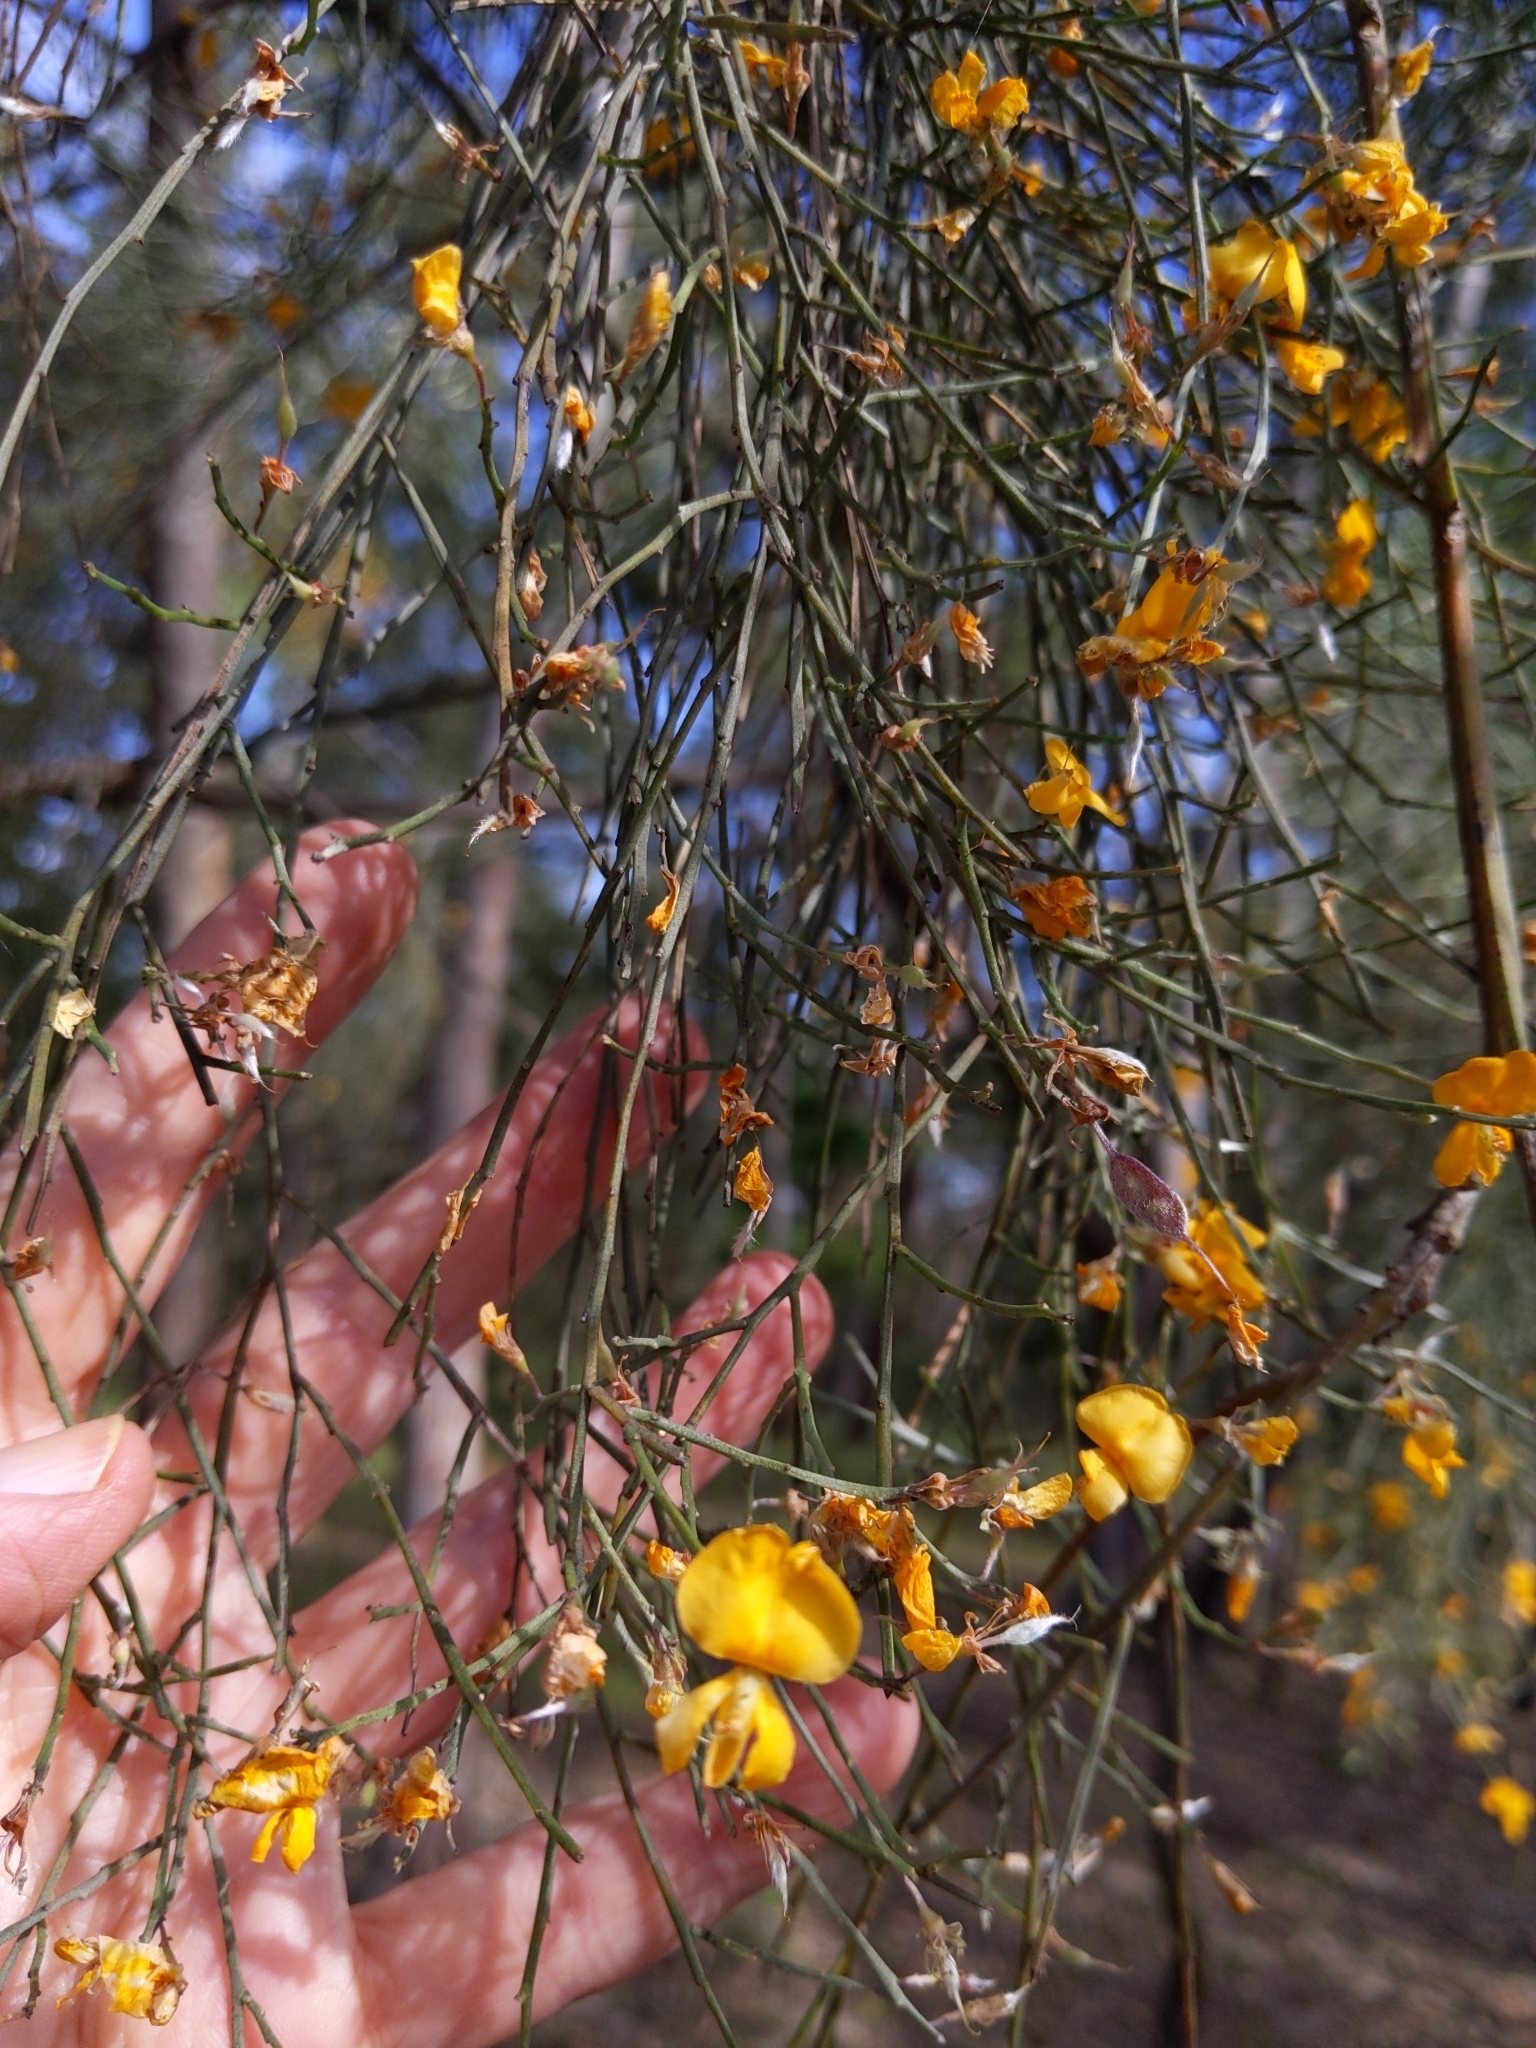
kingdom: Plantae
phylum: Tracheophyta
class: Magnoliopsida
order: Fabales
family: Fabaceae
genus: Jacksonia
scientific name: Jacksonia scoparia
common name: Dogwood
